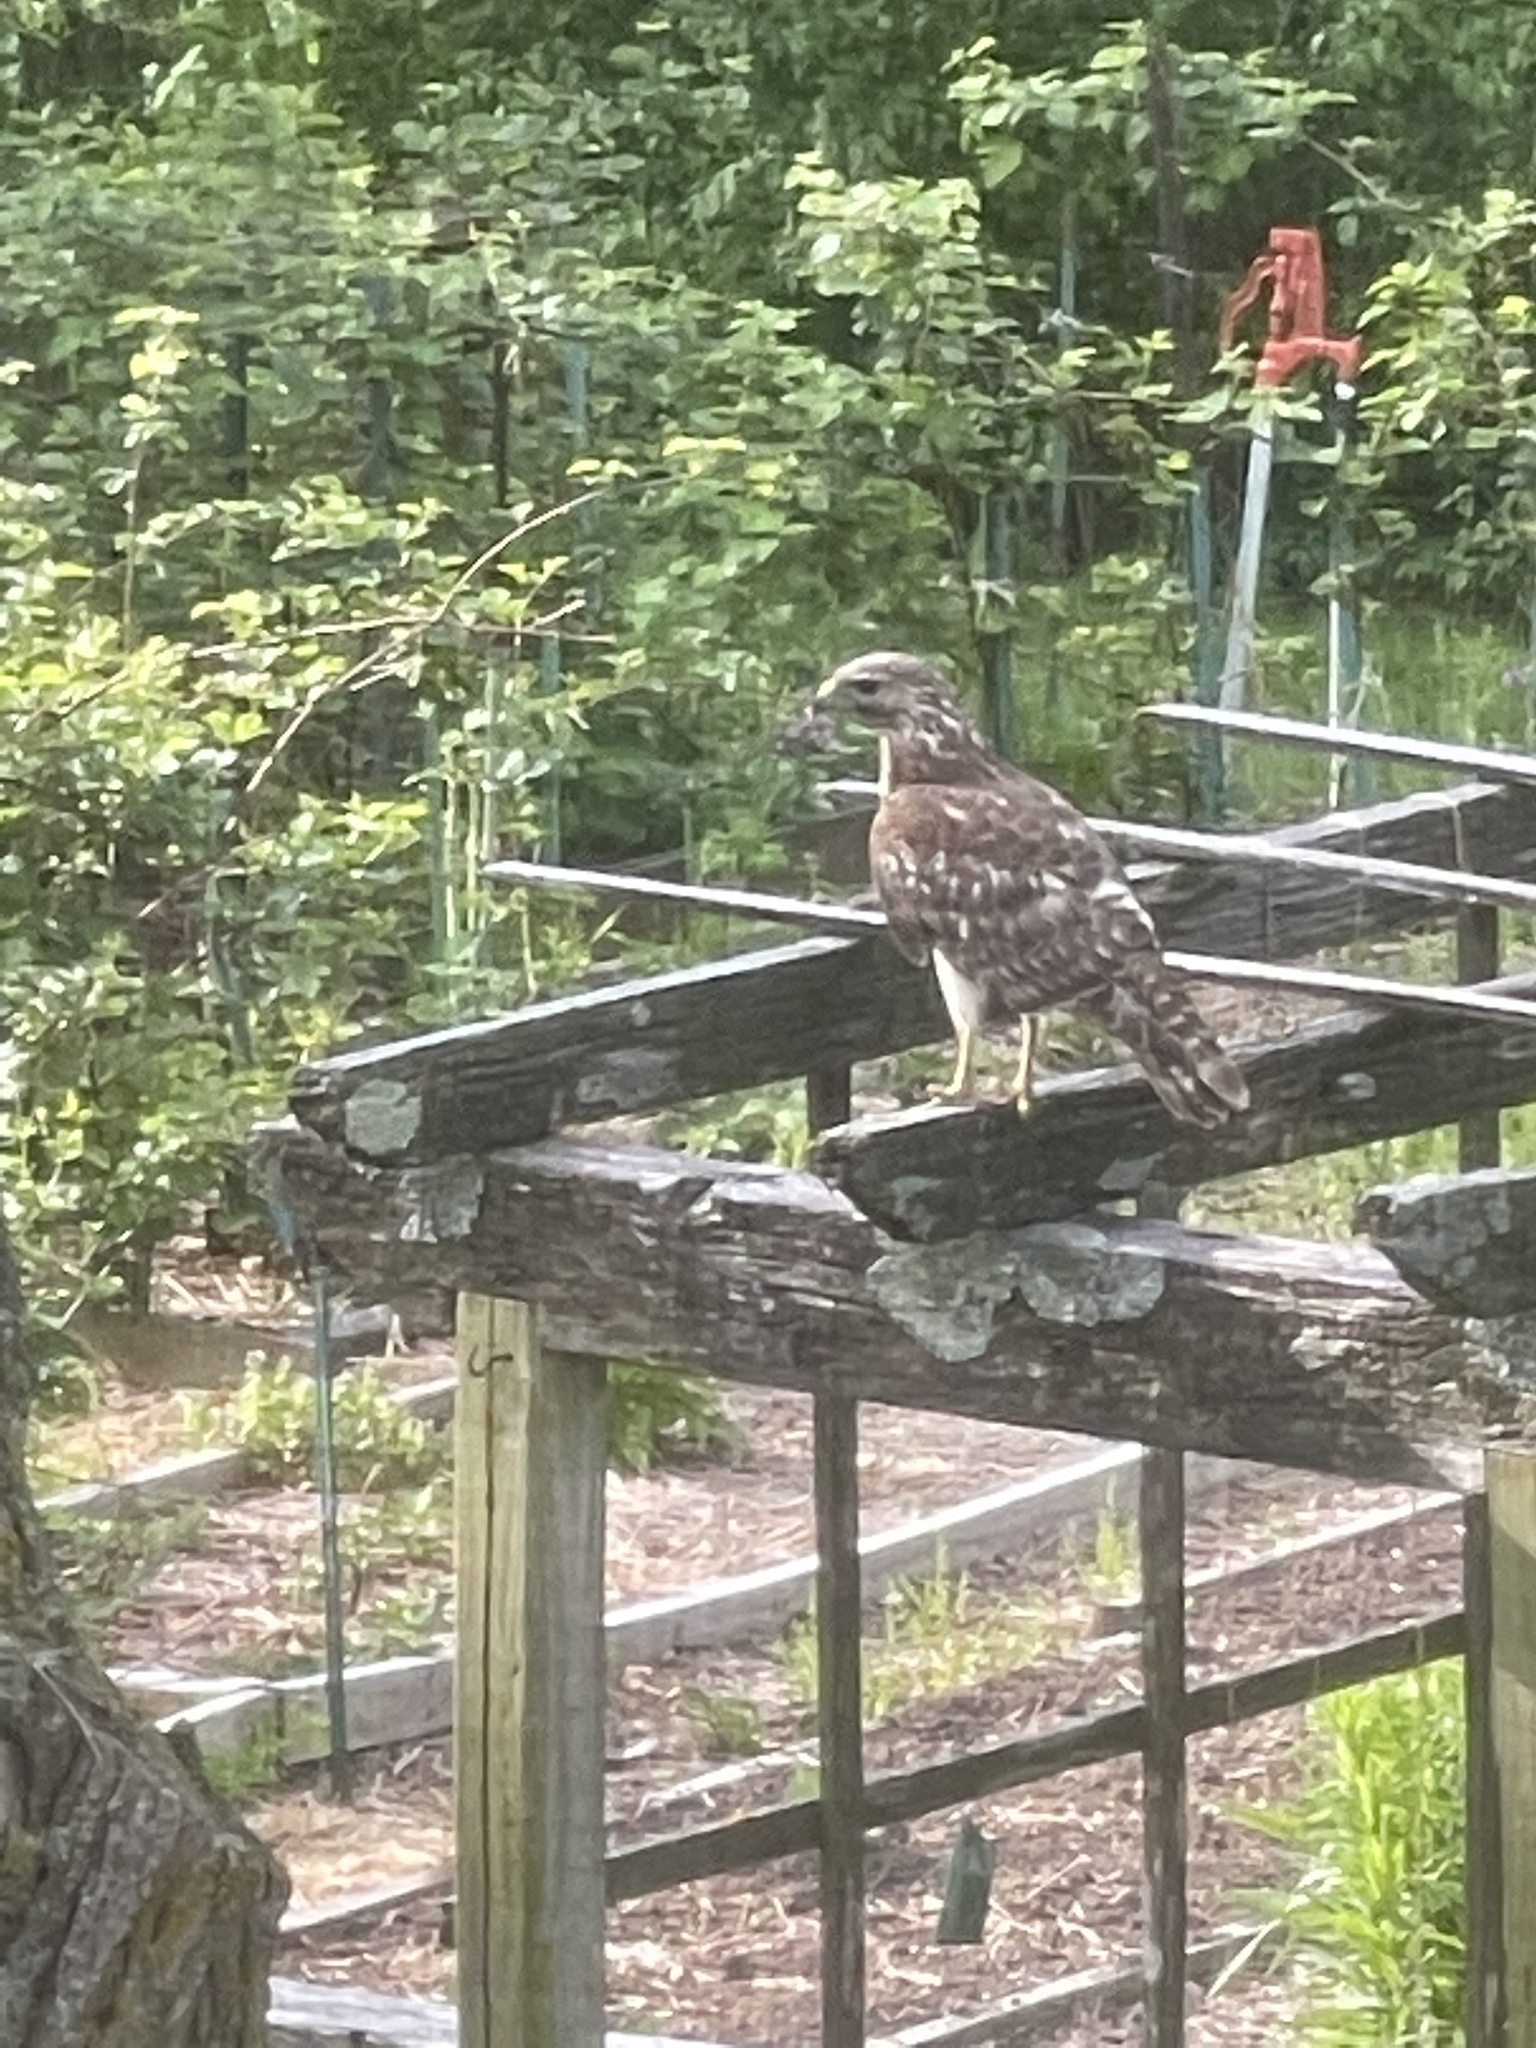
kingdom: Animalia
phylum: Chordata
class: Aves
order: Accipitriformes
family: Accipitridae
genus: Buteo
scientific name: Buteo lineatus
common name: Red-shouldered hawk
